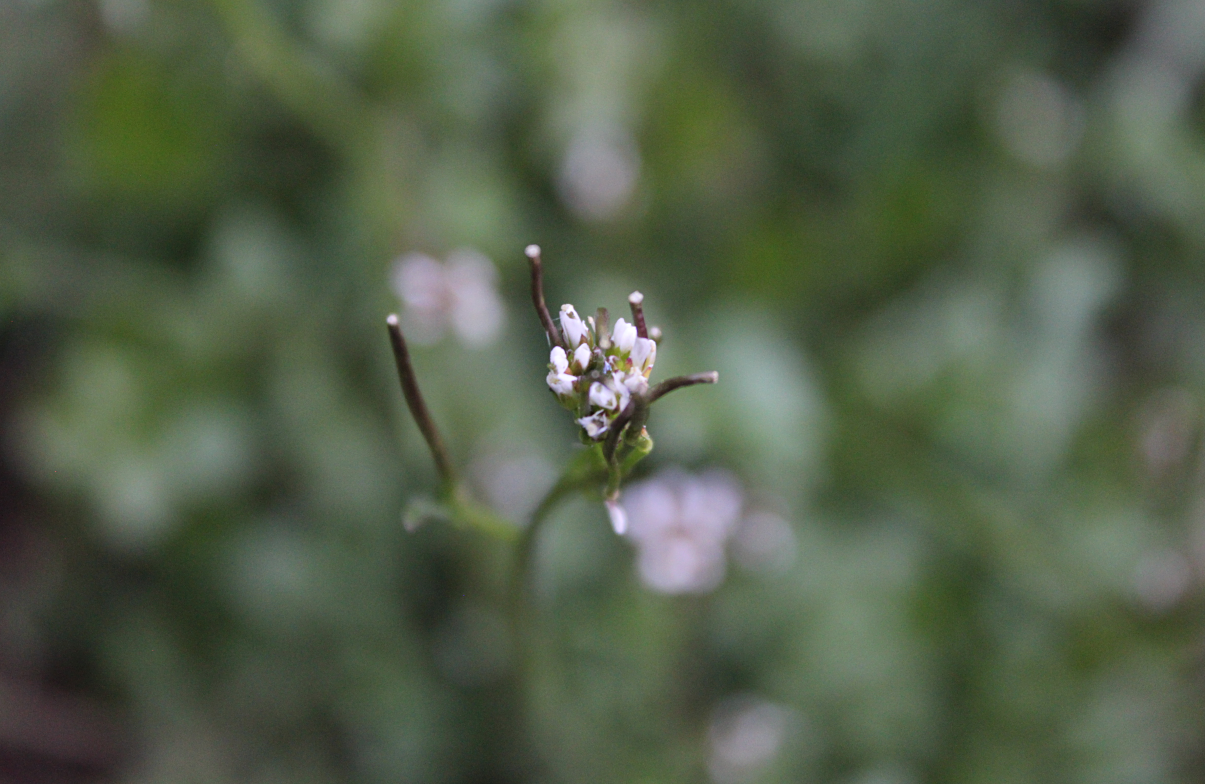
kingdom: Plantae
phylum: Tracheophyta
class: Magnoliopsida
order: Brassicales
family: Brassicaceae
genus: Cardamine
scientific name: Cardamine hirsuta
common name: Hairy bittercress
